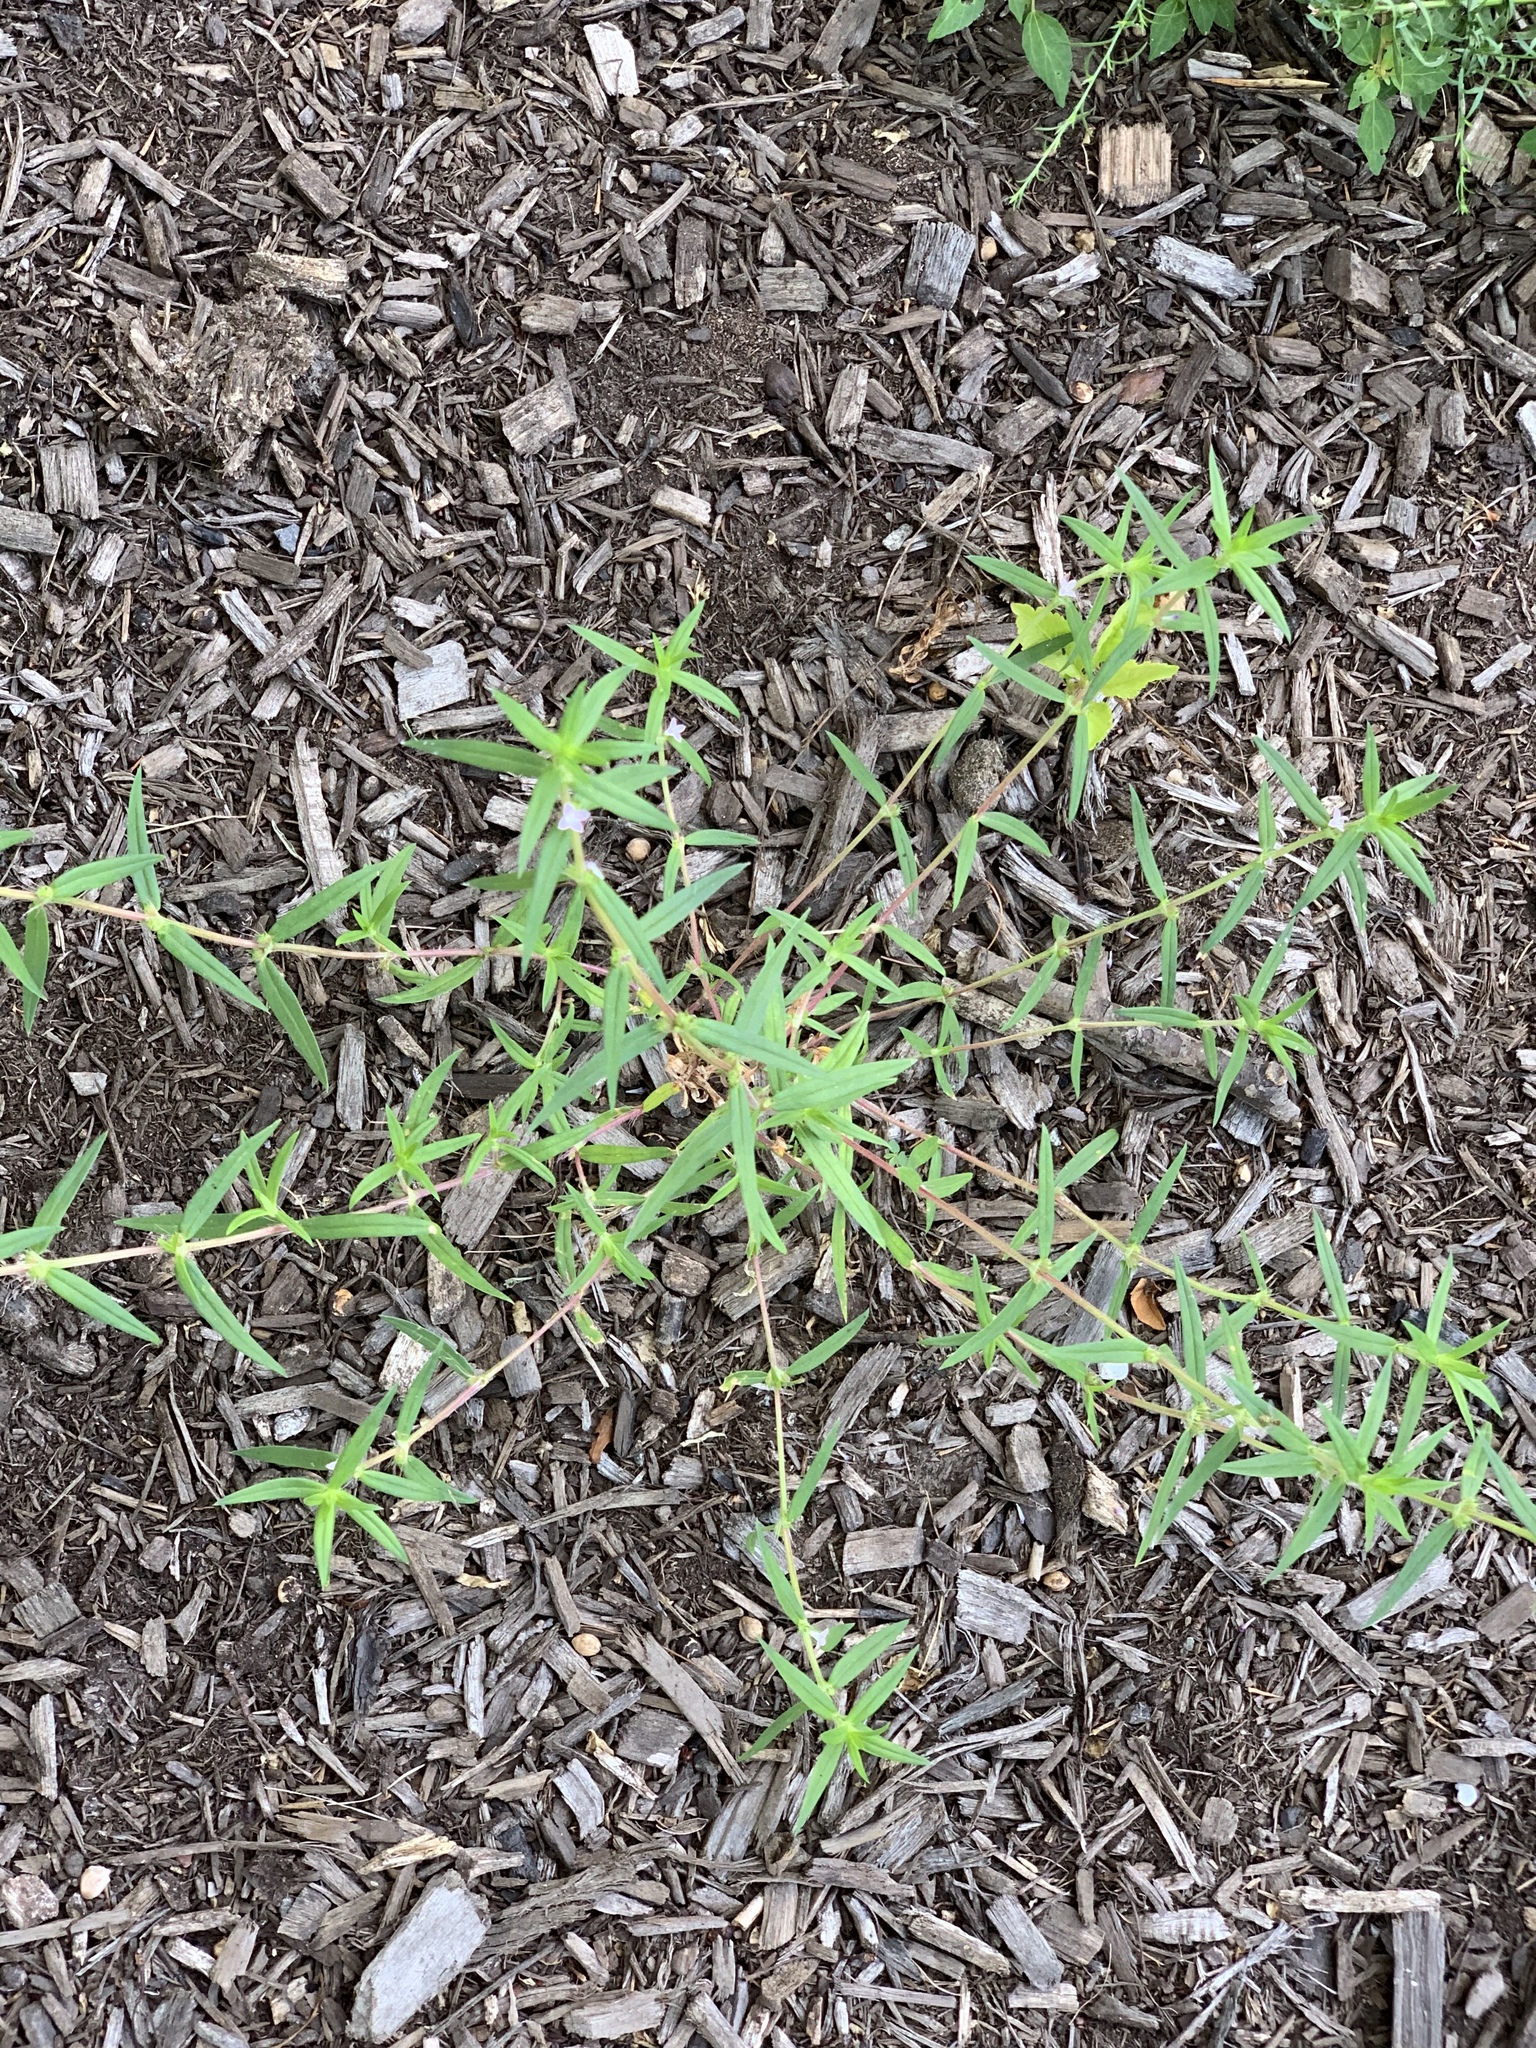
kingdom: Plantae
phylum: Tracheophyta
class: Magnoliopsida
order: Gentianales
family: Rubiaceae
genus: Hexasepalum
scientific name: Hexasepalum teres
